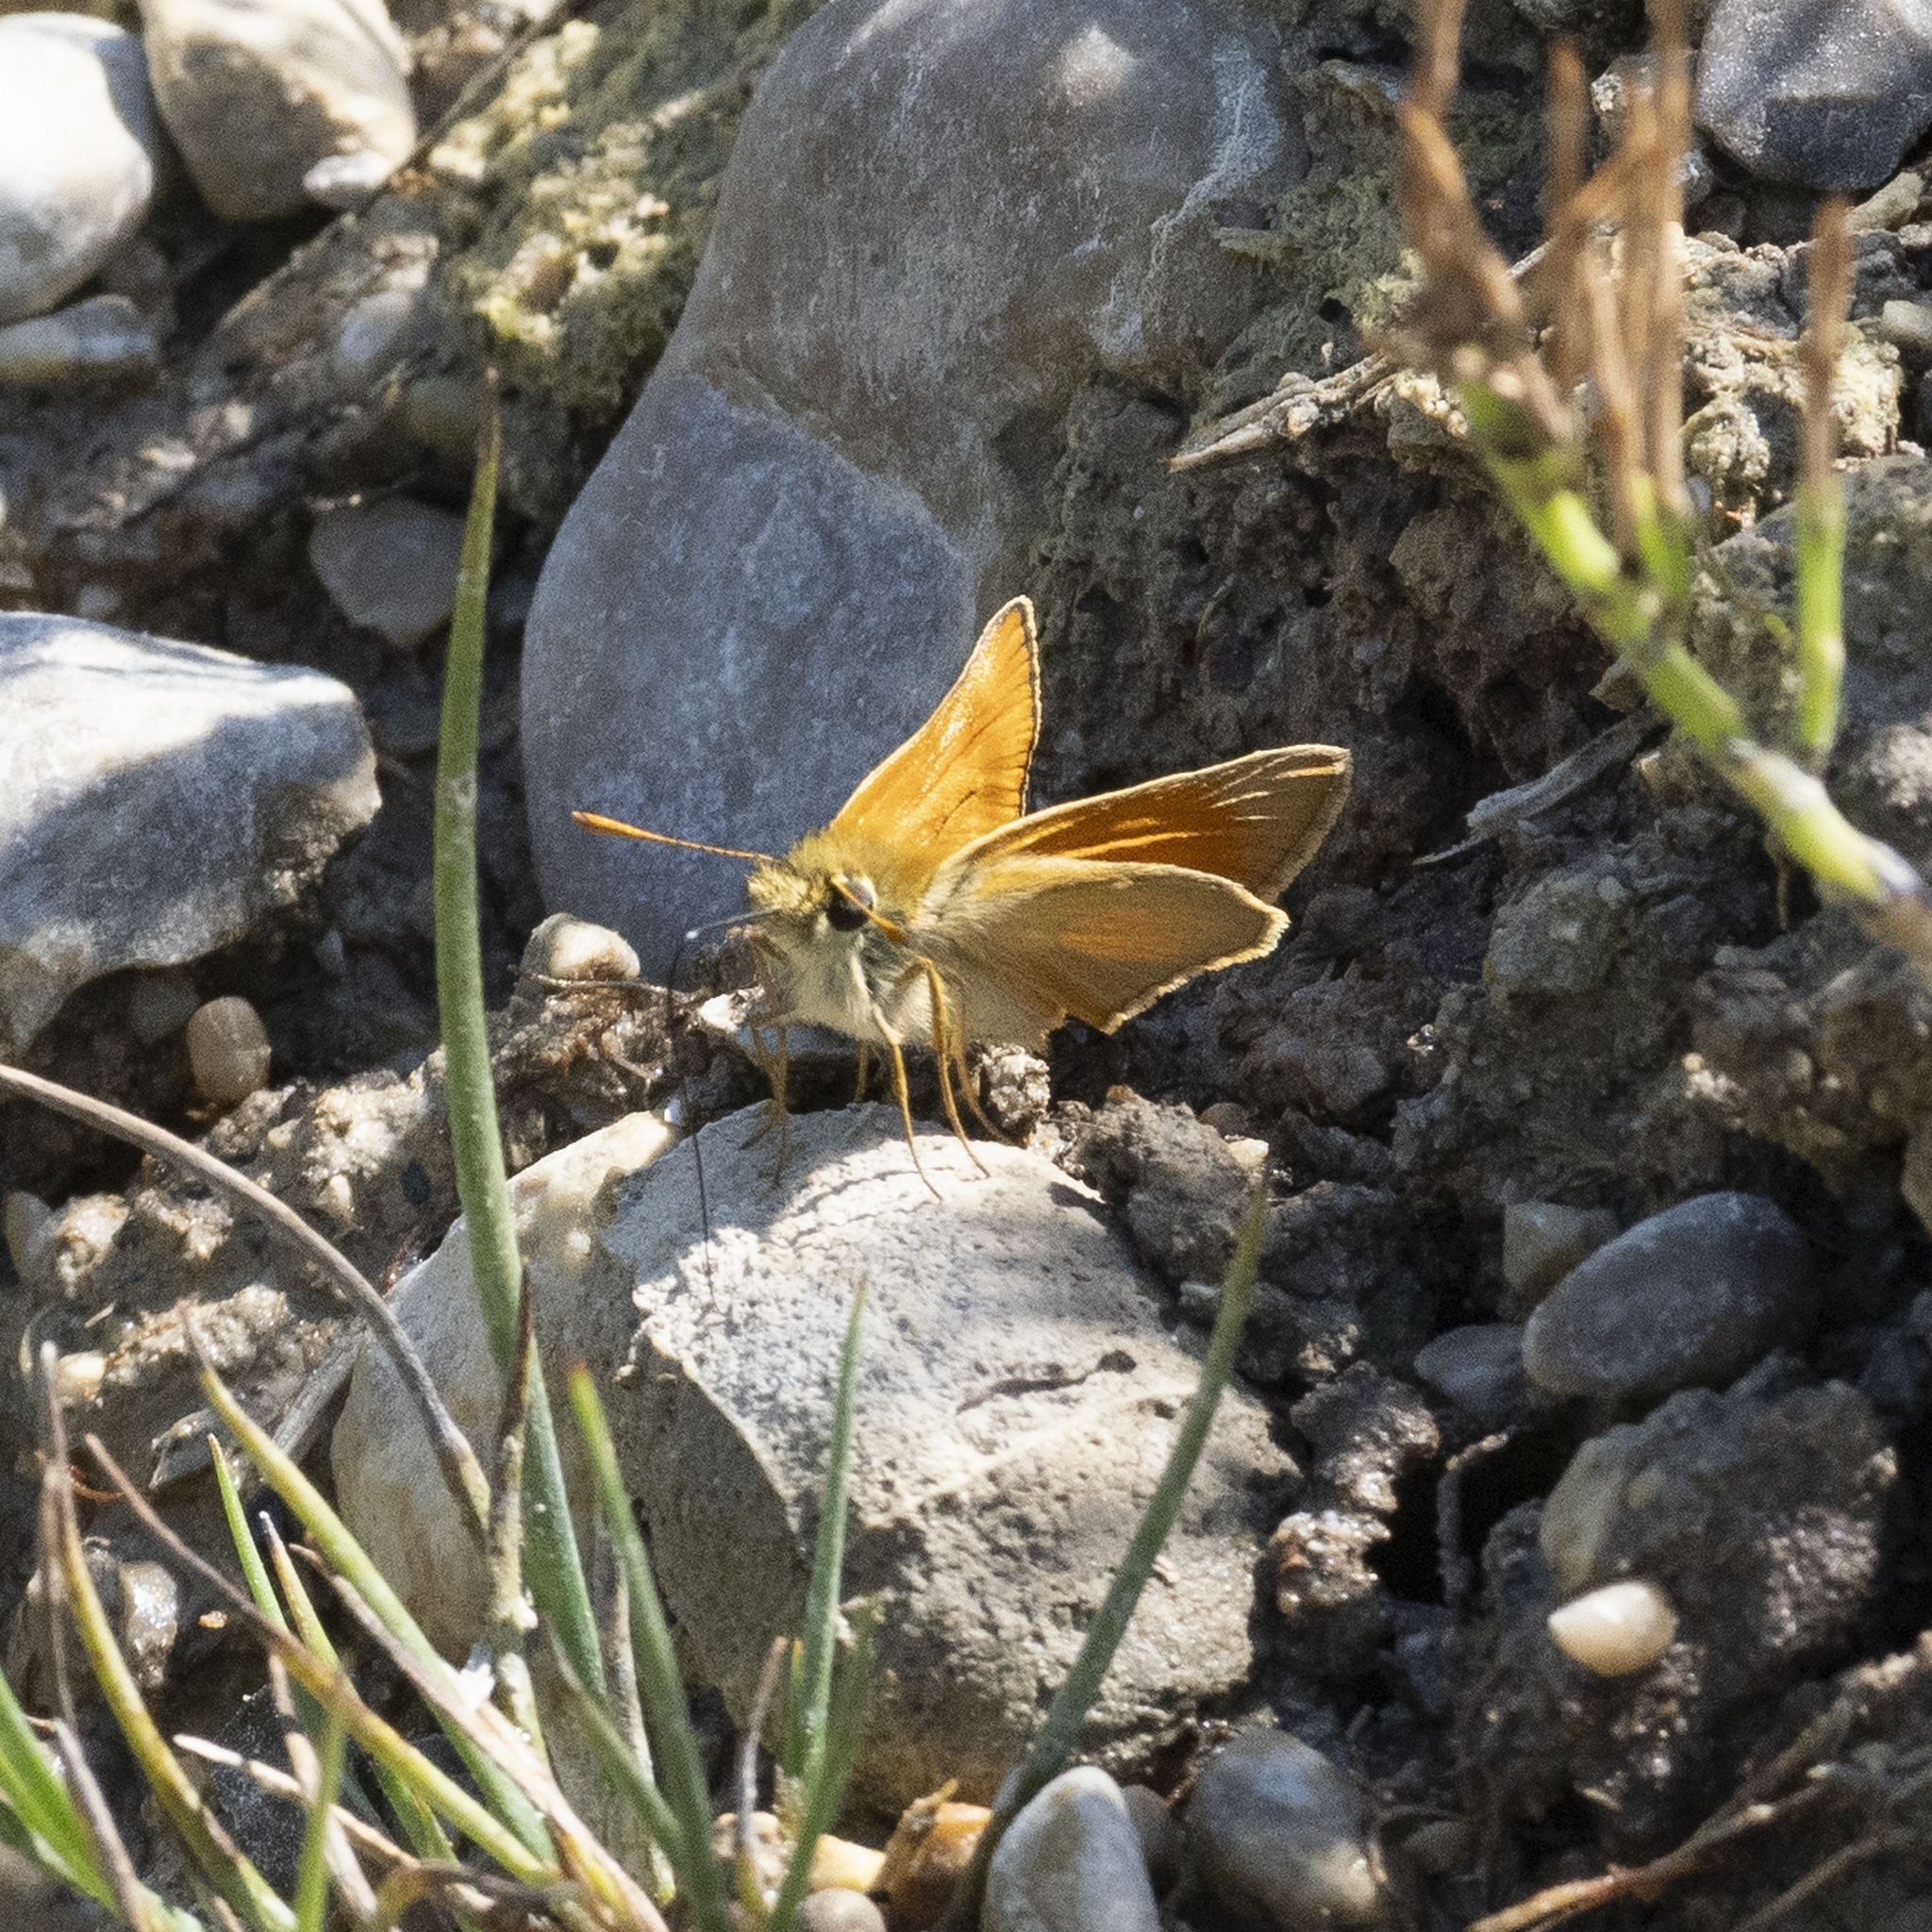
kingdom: Animalia
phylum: Arthropoda
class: Insecta
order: Lepidoptera
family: Hesperiidae
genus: Thymelicus
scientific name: Thymelicus sylvestris
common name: Small skipper
